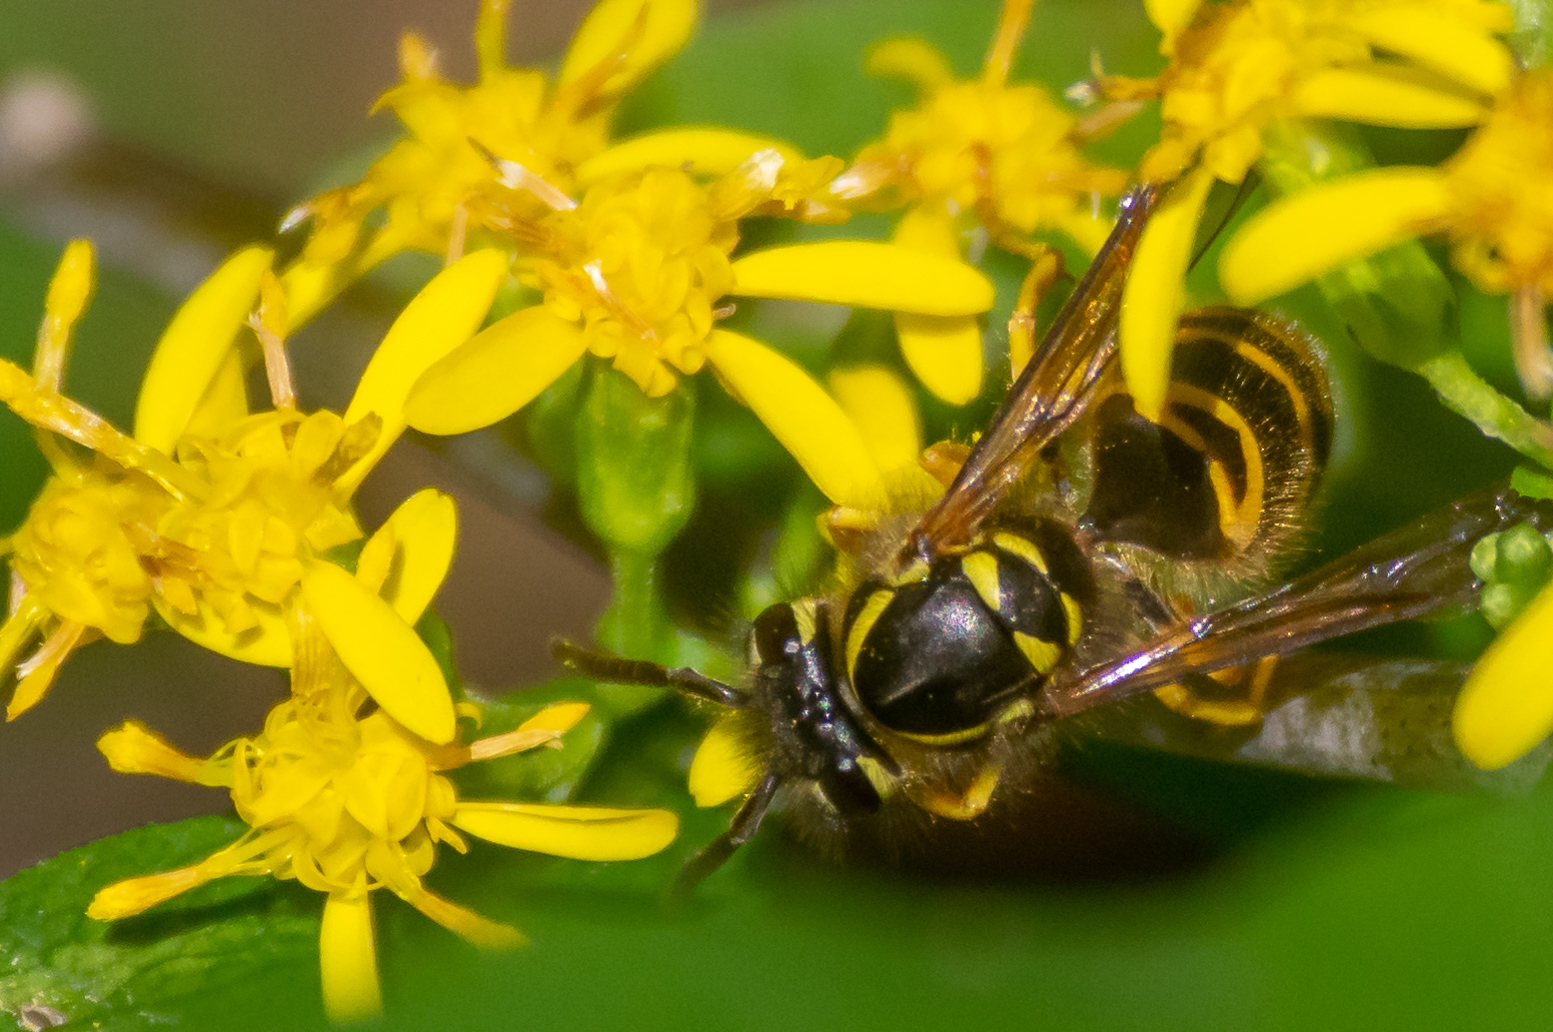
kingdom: Animalia
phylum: Arthropoda
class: Insecta
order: Hymenoptera
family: Vespidae
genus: Vespula
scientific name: Vespula maculifrons
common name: Eastern yellowjacket
